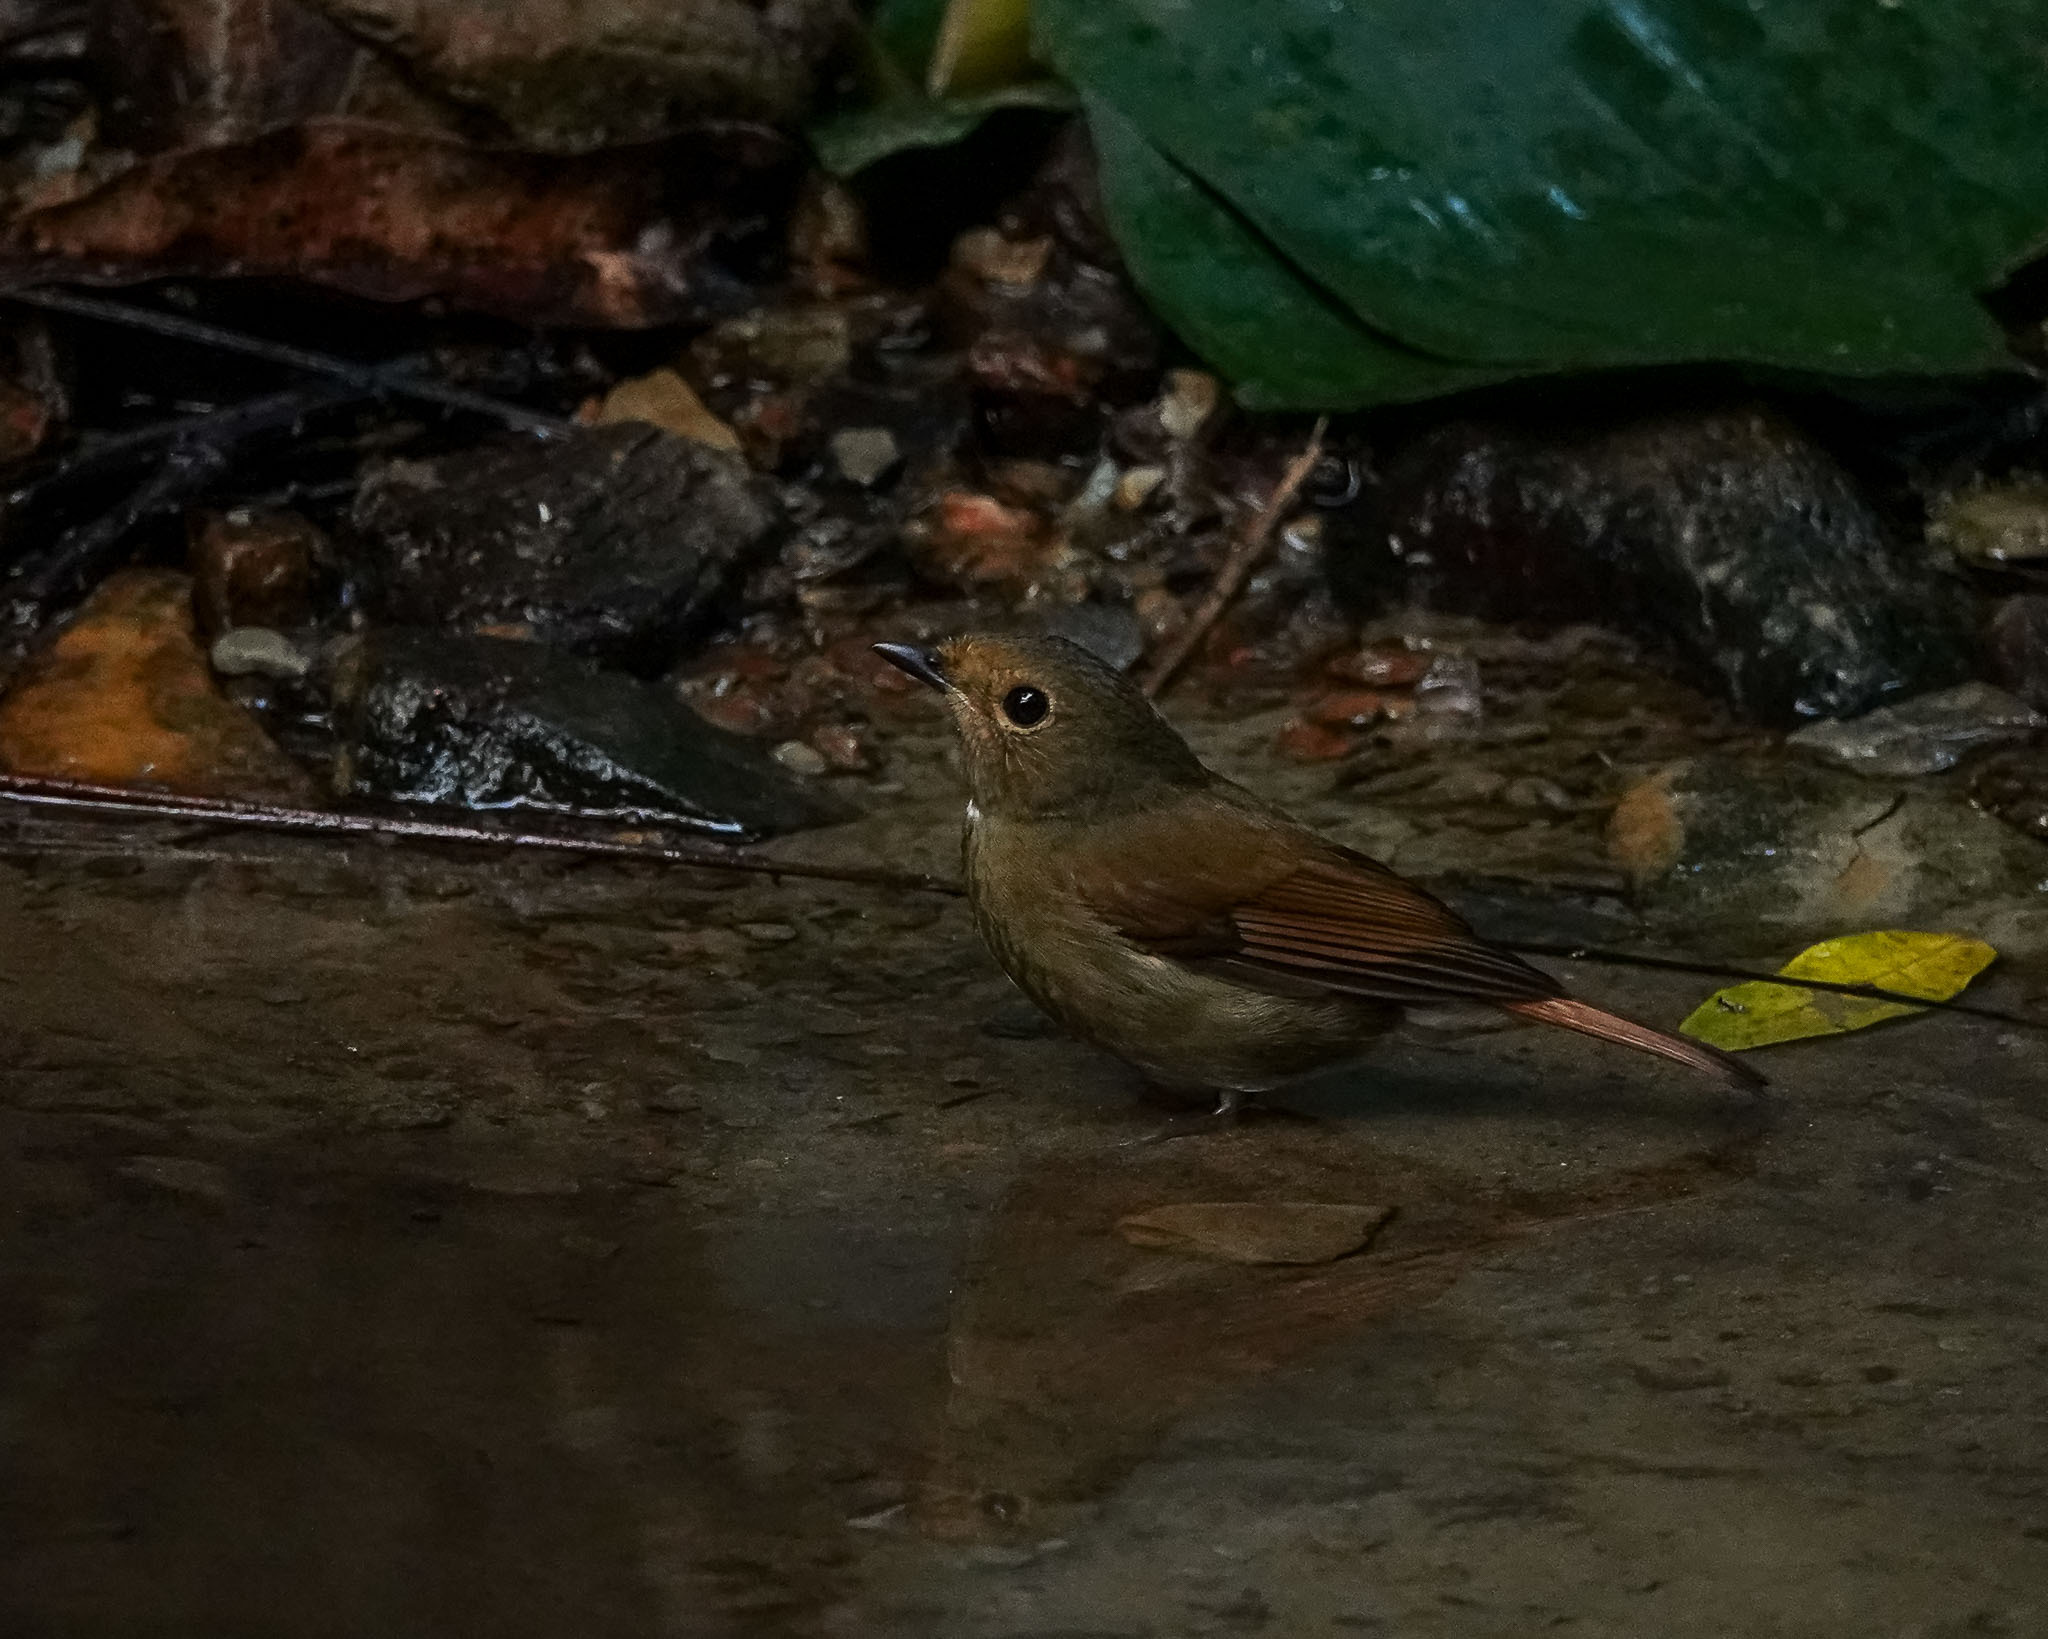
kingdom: Animalia
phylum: Chordata
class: Aves
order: Passeriformes
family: Muscicapidae
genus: Niltava
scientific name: Niltava grandis
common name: Large niltava
